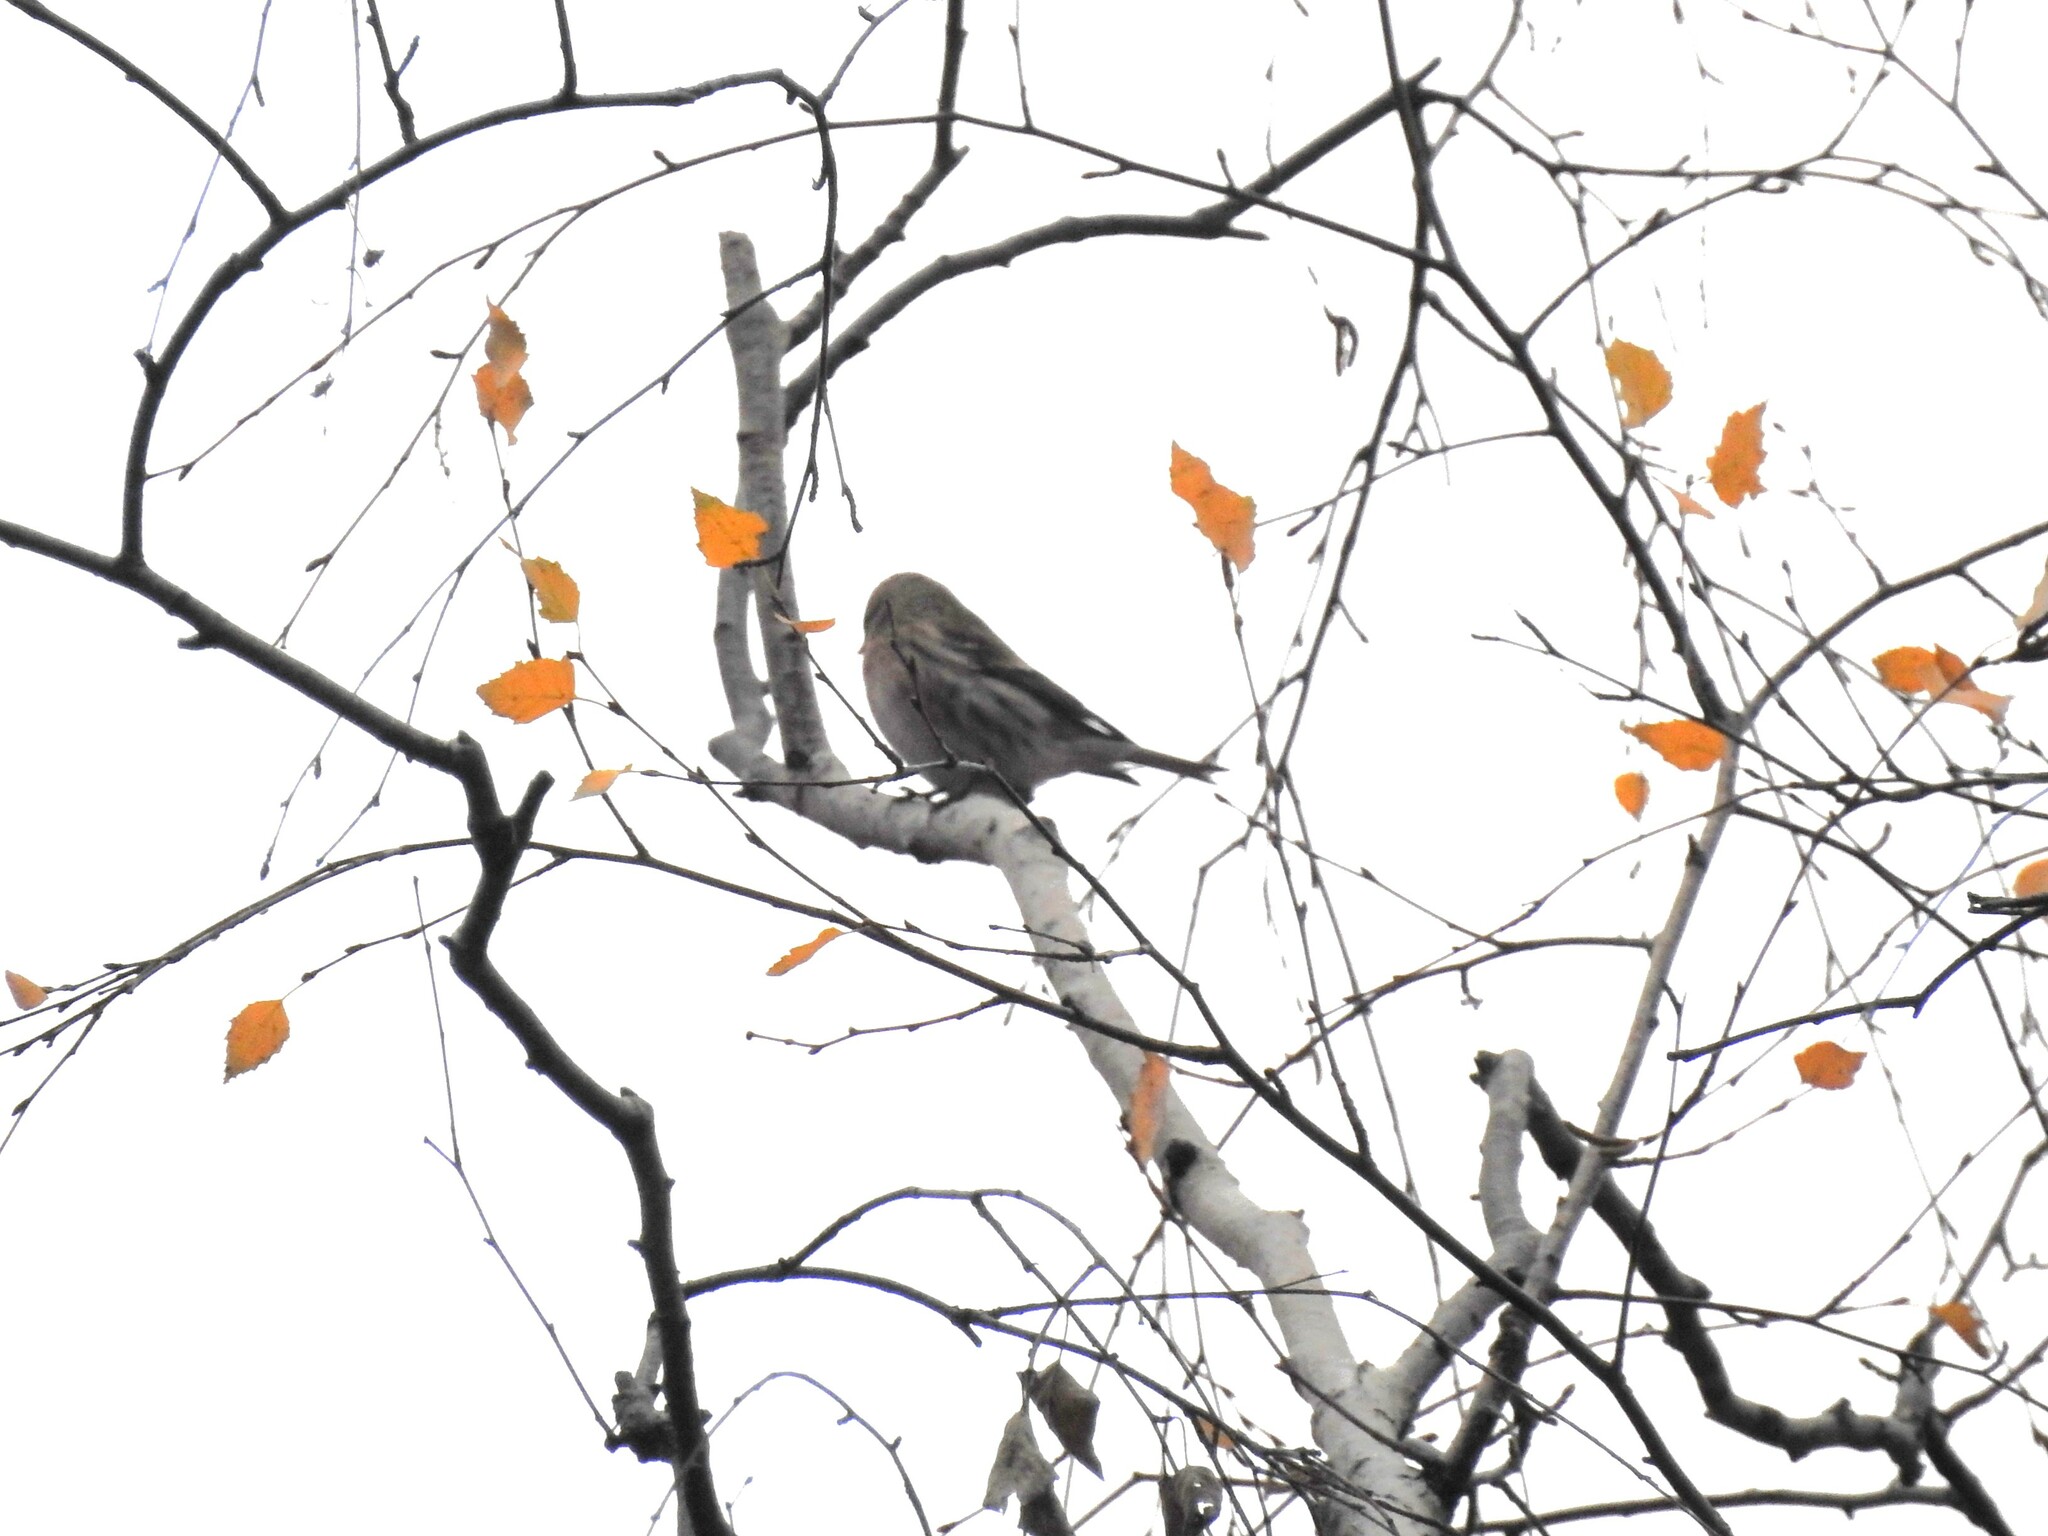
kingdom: Animalia
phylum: Chordata
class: Aves
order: Passeriformes
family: Fringillidae
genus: Acanthis
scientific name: Acanthis flammea
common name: Common redpoll
